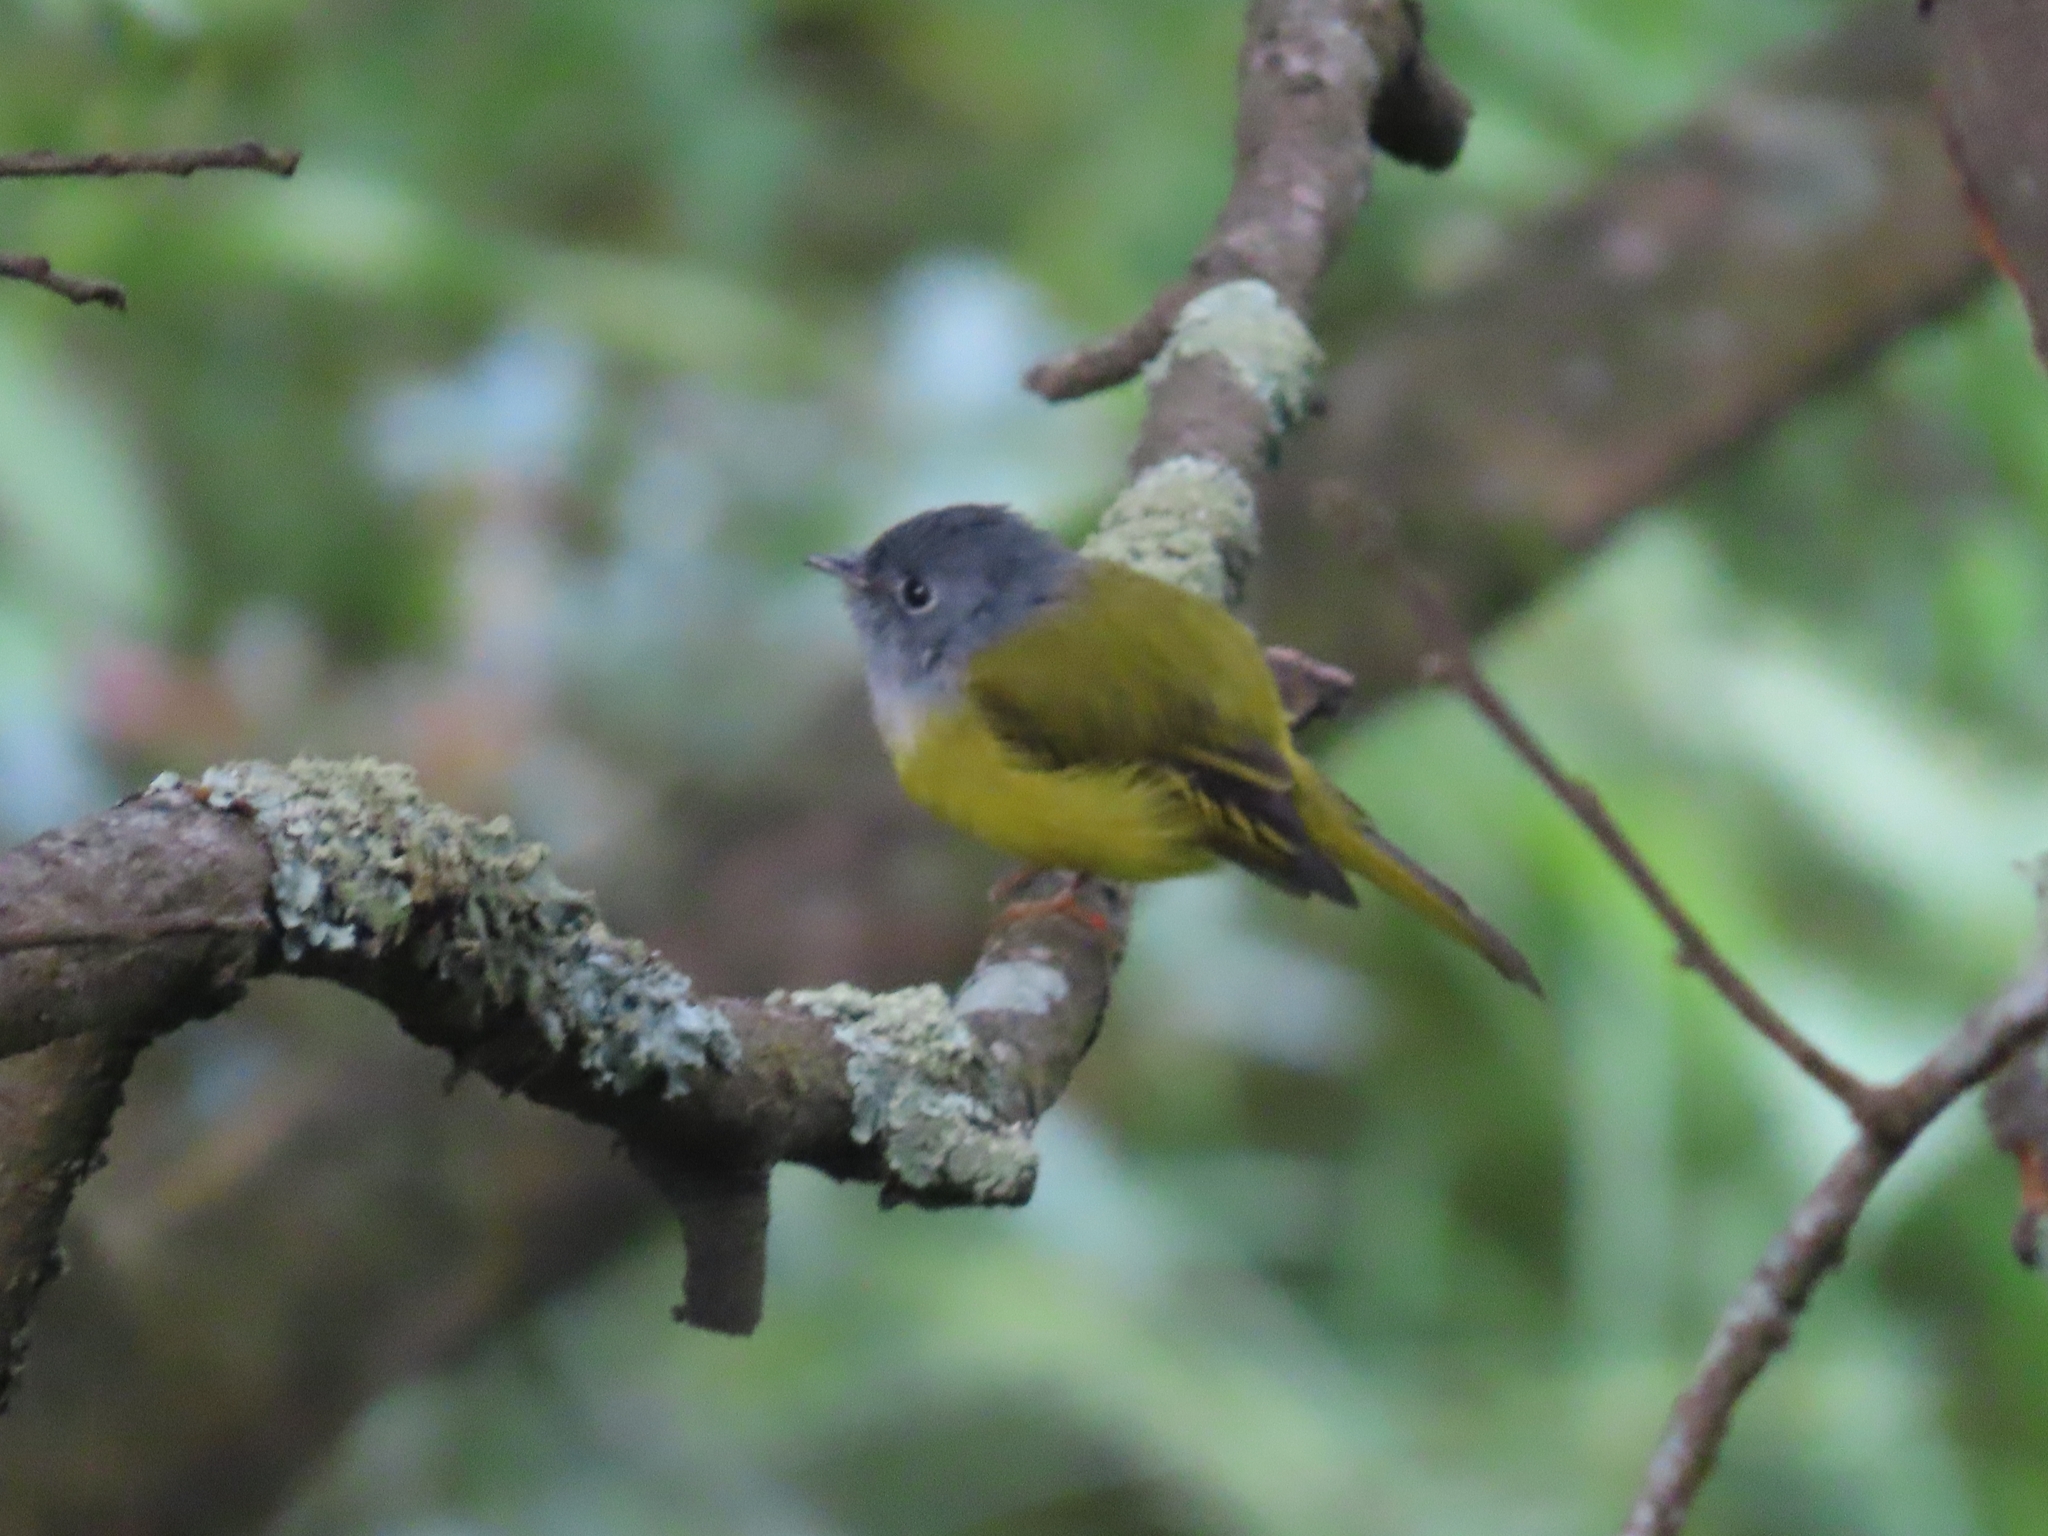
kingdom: Animalia
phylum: Chordata
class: Aves
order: Passeriformes
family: Stenostiridae
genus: Culicicapa
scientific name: Culicicapa ceylonensis
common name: Grey-headed canary-flycatcher
